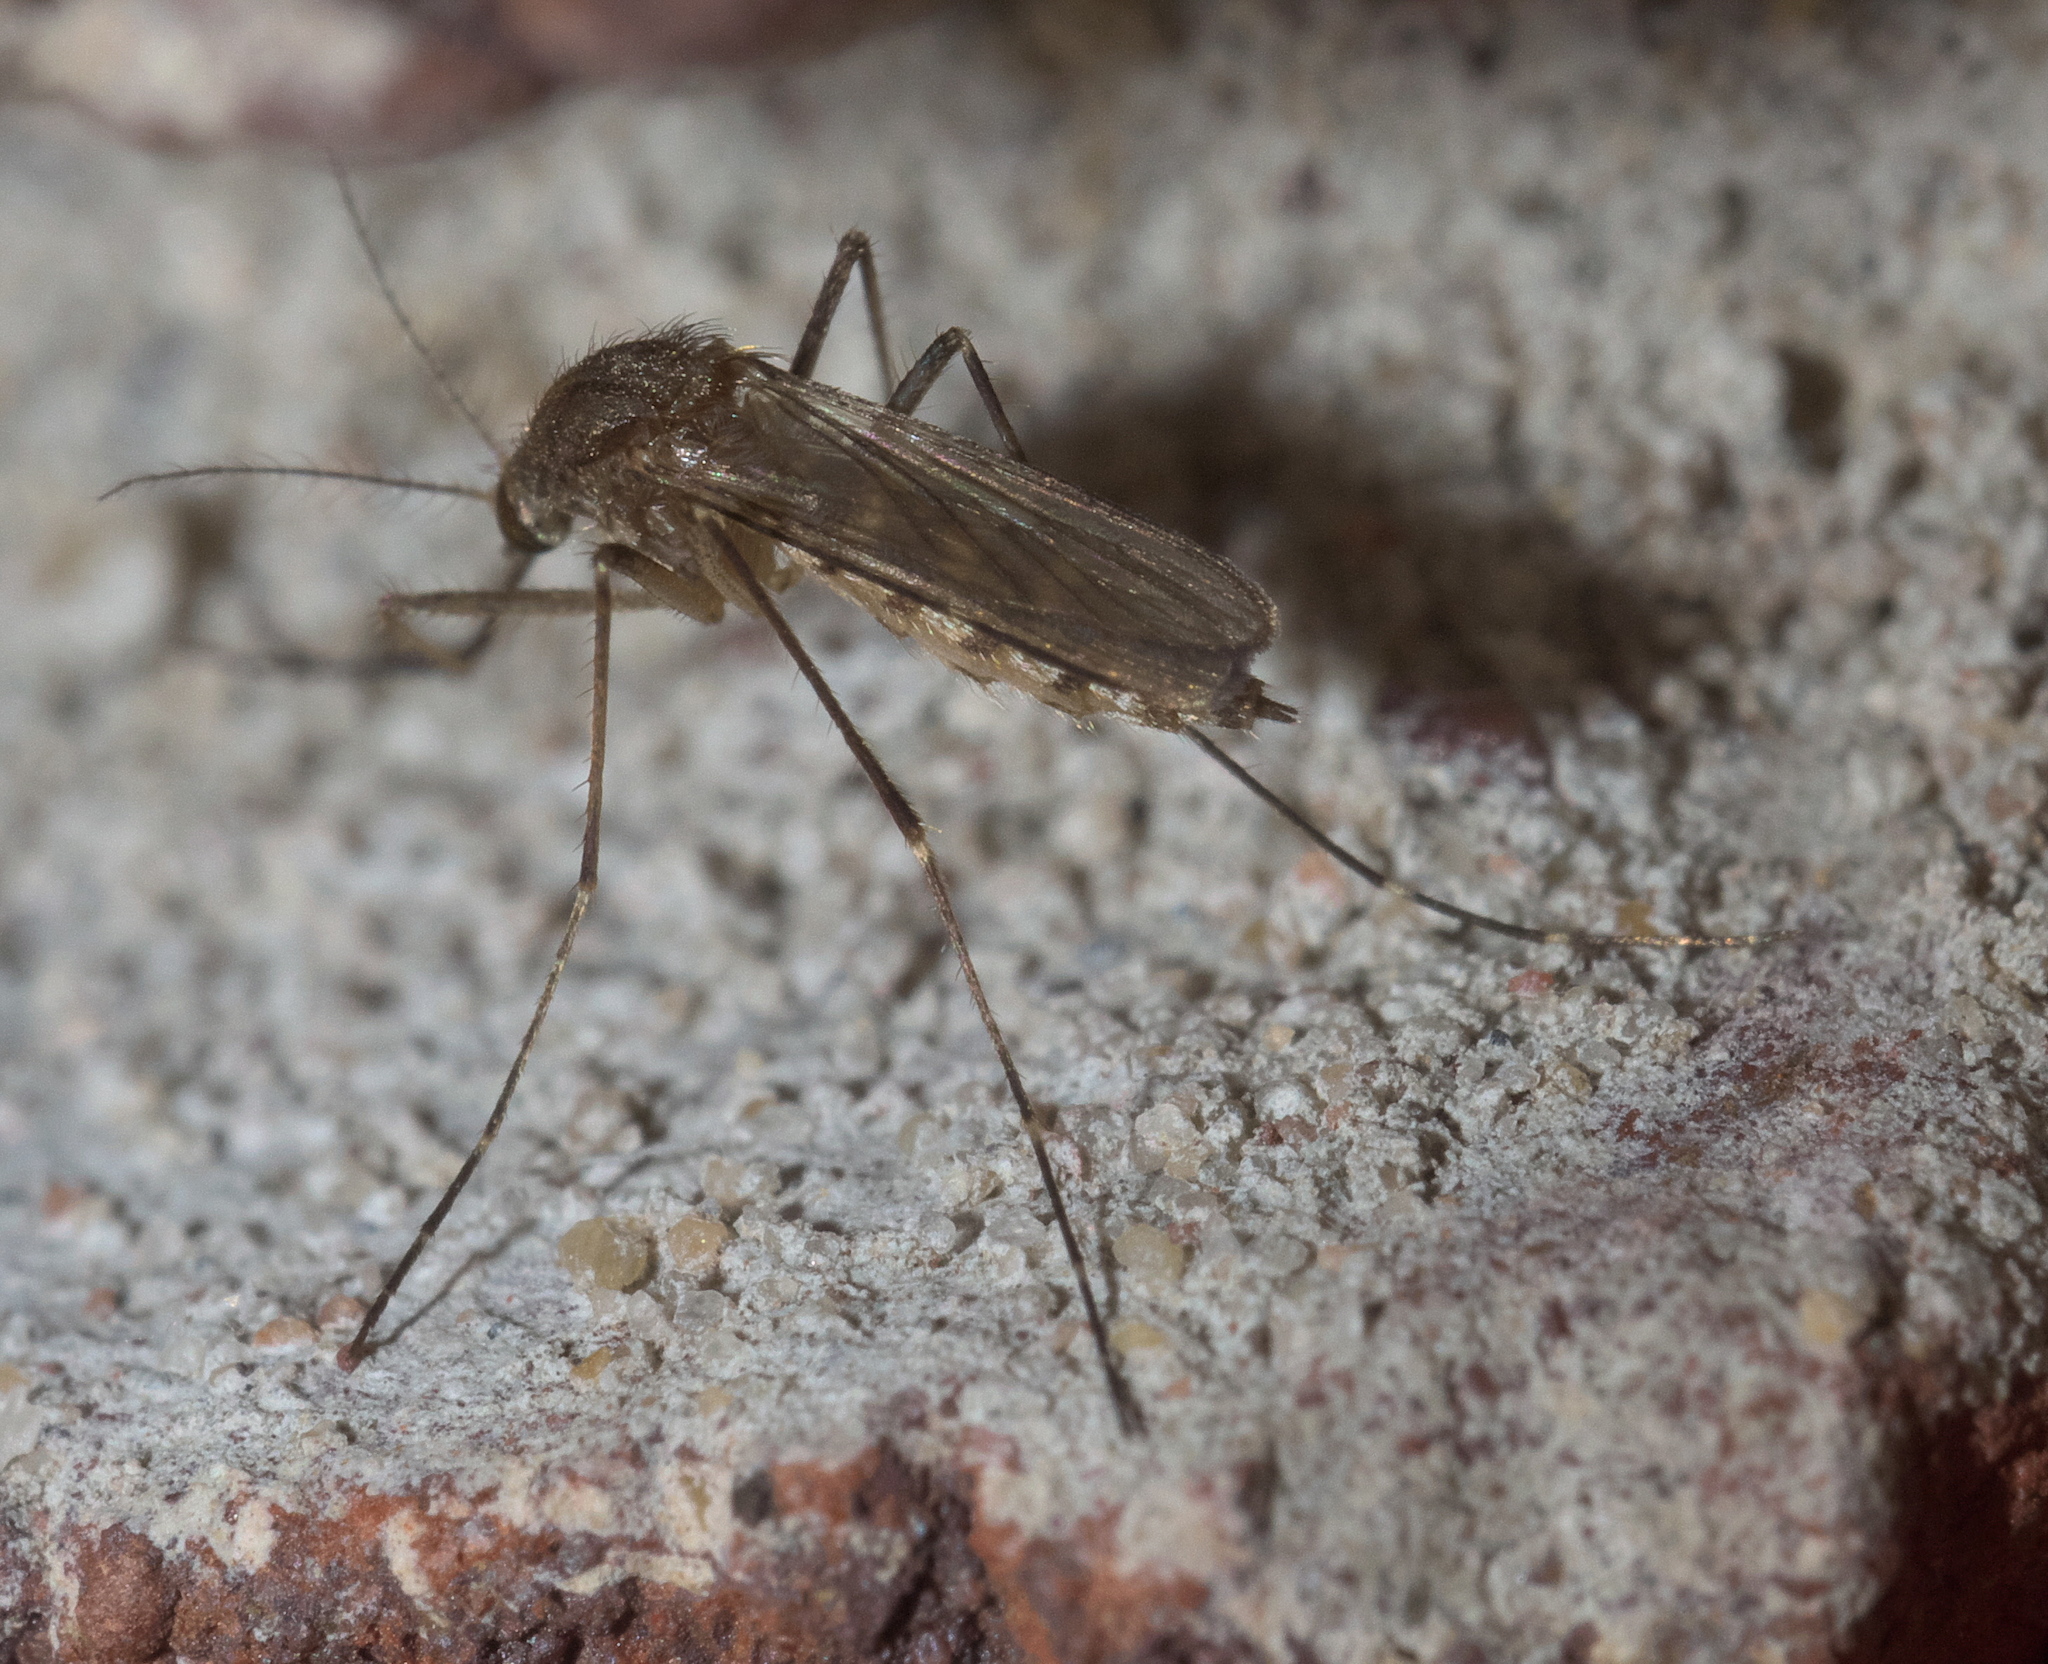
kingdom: Animalia
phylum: Arthropoda
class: Insecta
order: Diptera
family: Culicidae
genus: Aedes
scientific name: Aedes vexans
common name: Inland floodwater mosquito
